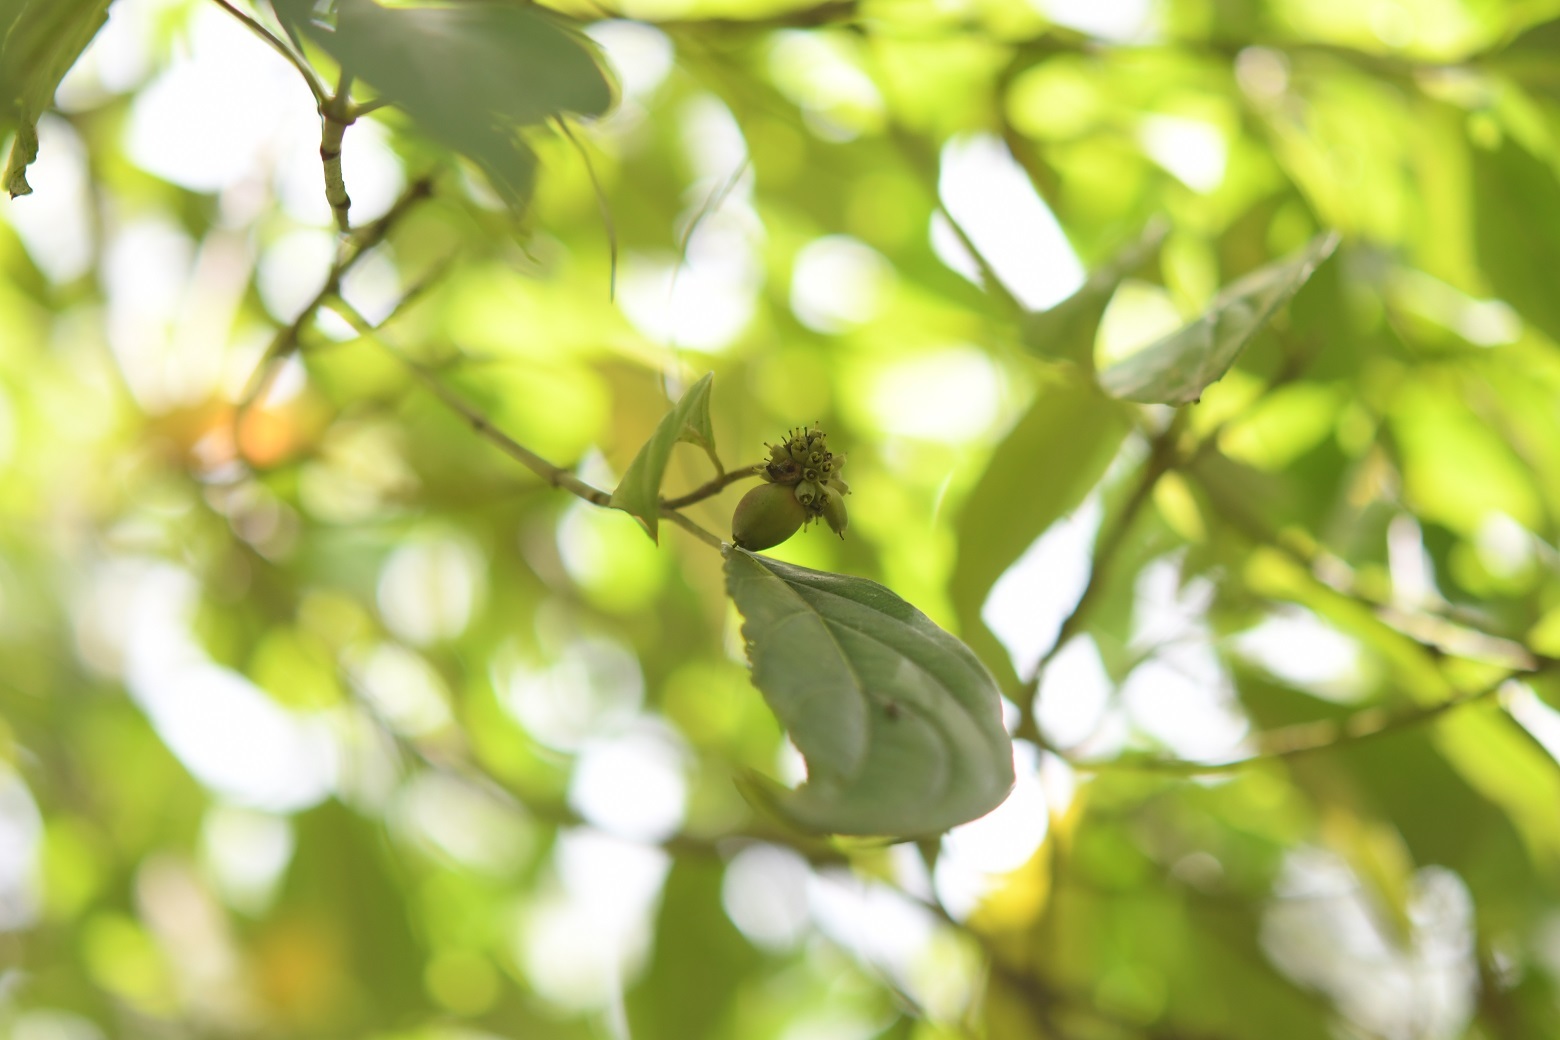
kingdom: Plantae
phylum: Tracheophyta
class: Magnoliopsida
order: Cornales
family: Cornaceae
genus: Cornus
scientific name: Cornus disciflora
